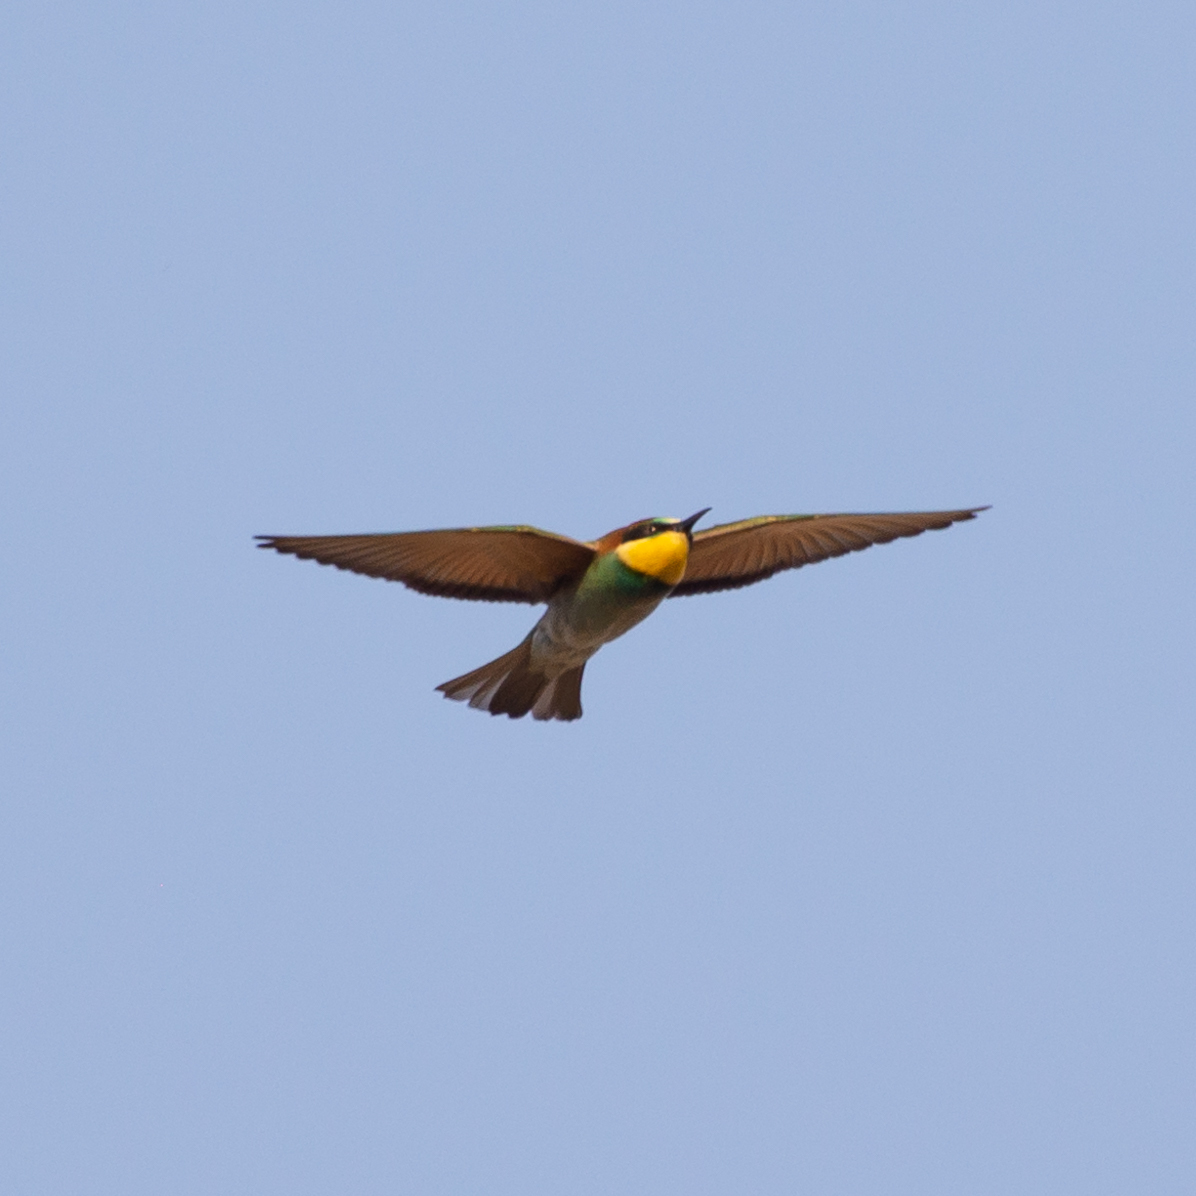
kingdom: Animalia
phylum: Chordata
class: Aves
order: Coraciiformes
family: Meropidae
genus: Merops
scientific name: Merops apiaster
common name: European bee-eater
